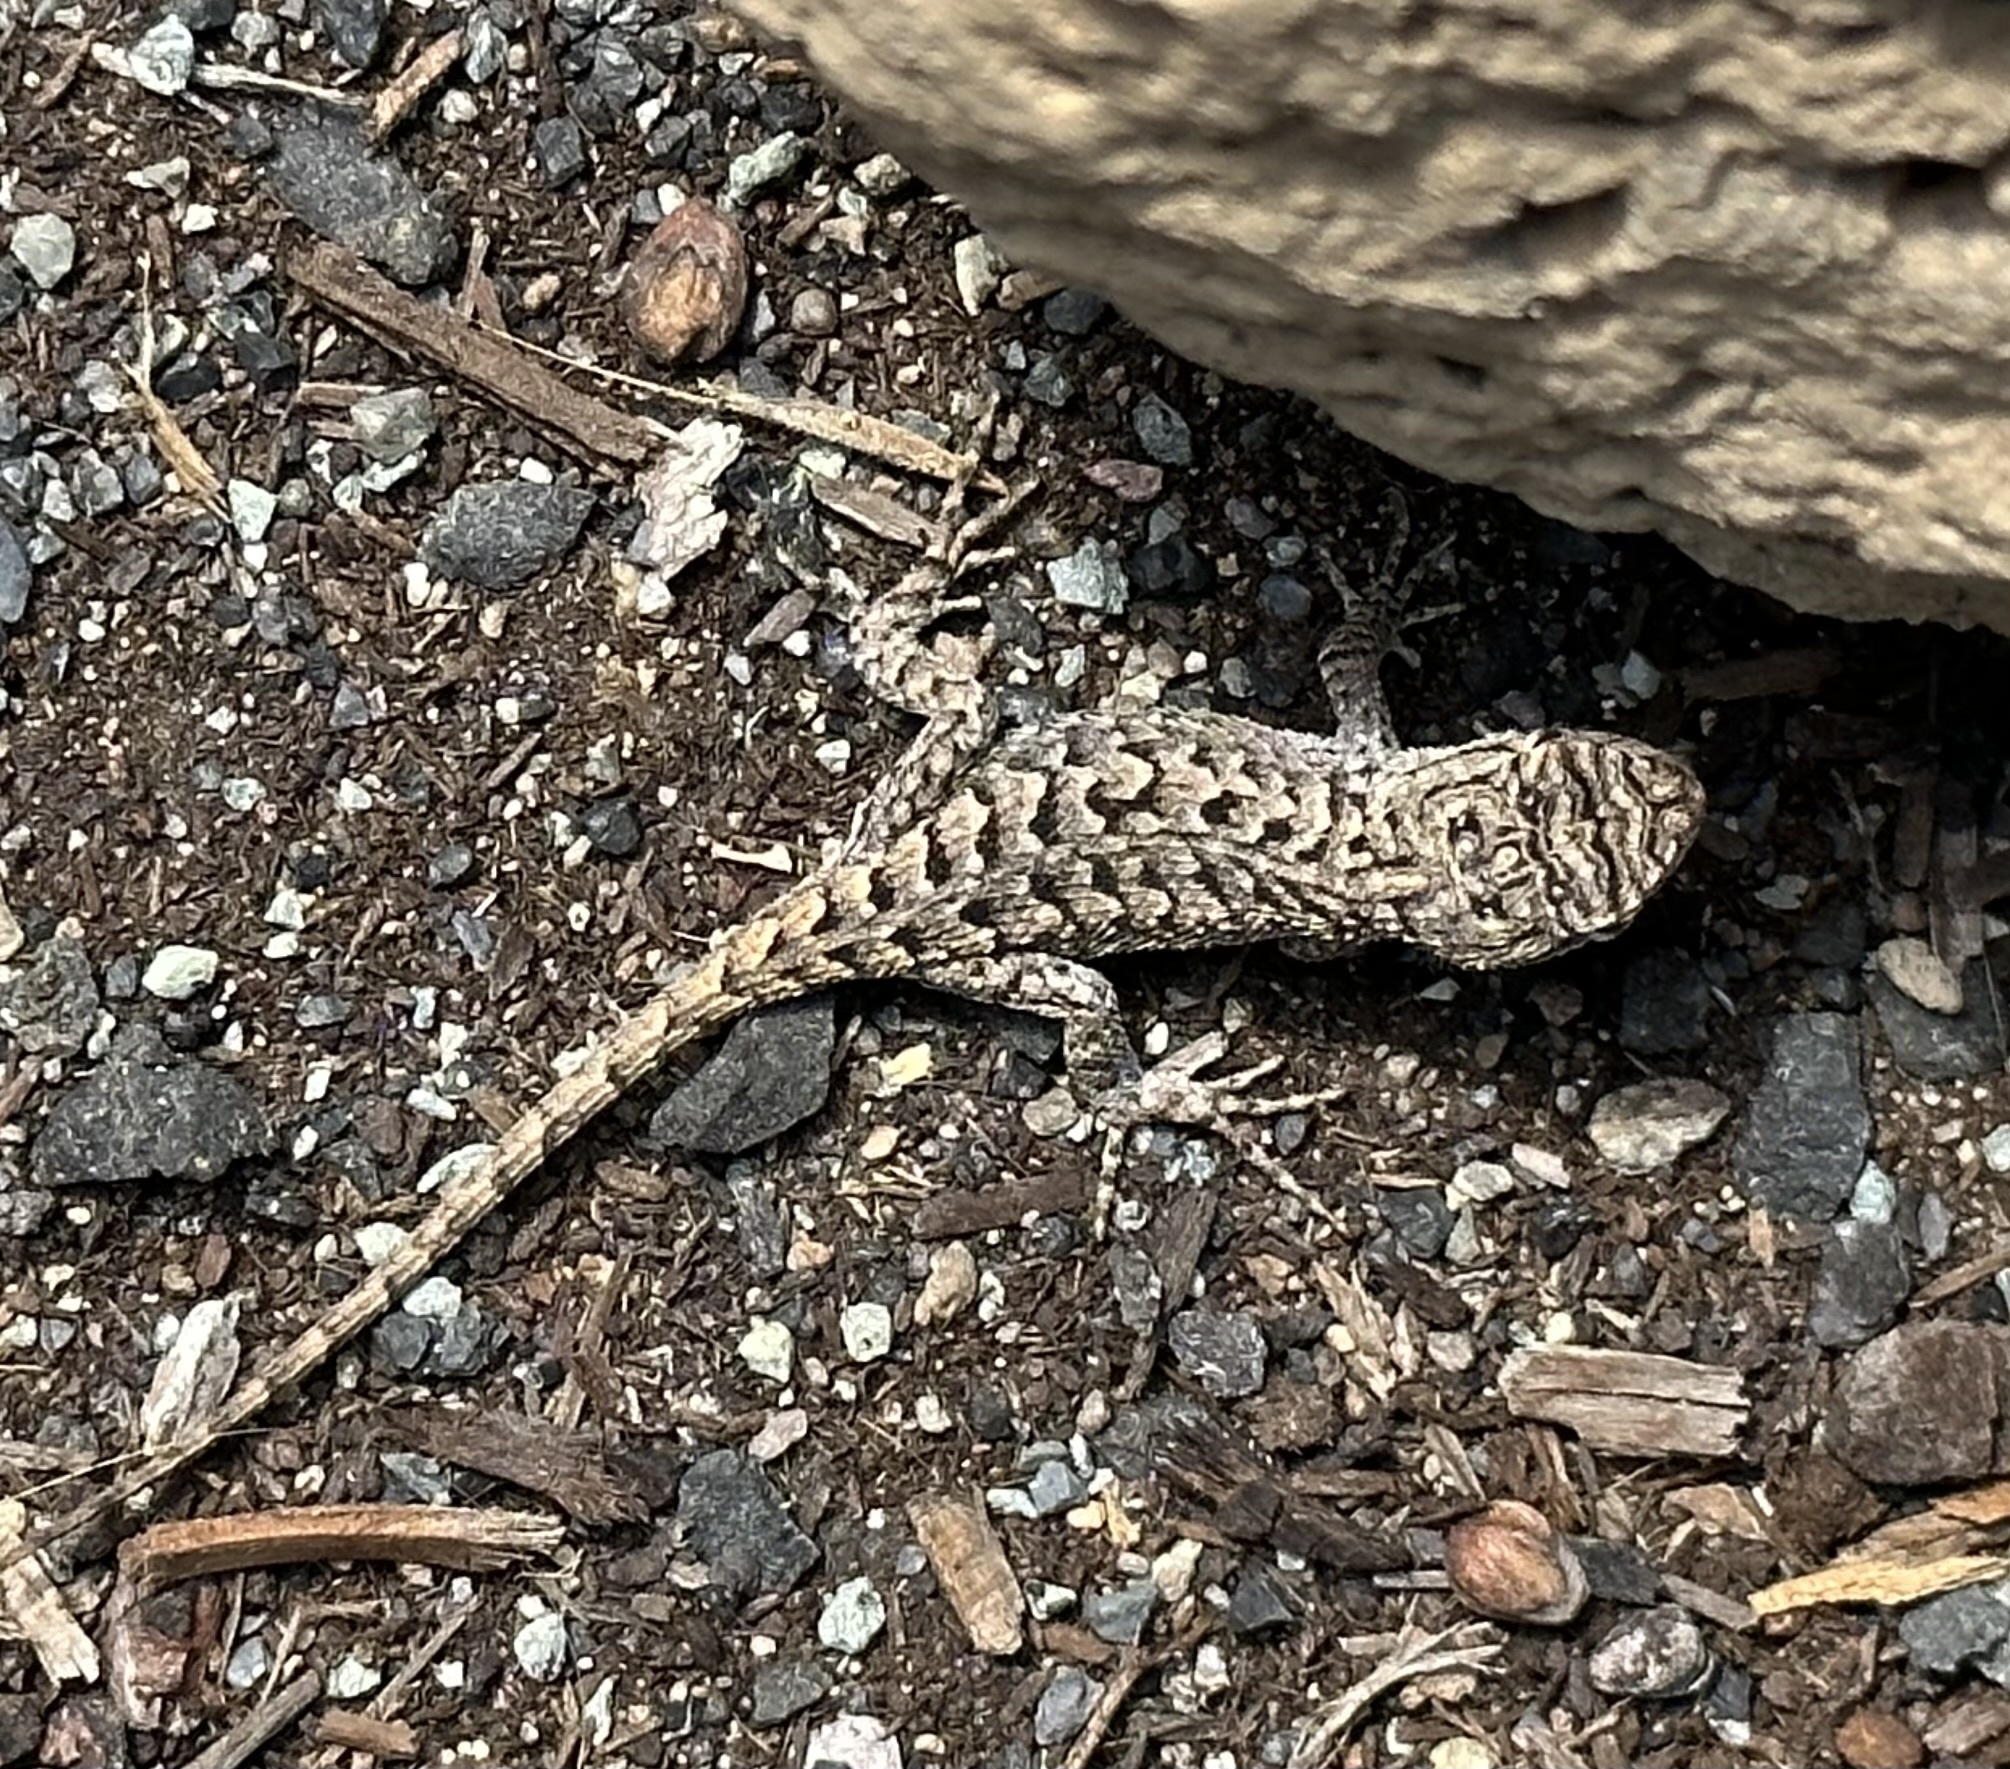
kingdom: Animalia
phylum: Chordata
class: Squamata
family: Phrynosomatidae
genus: Sceloporus
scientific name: Sceloporus occidentalis
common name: Western fence lizard
